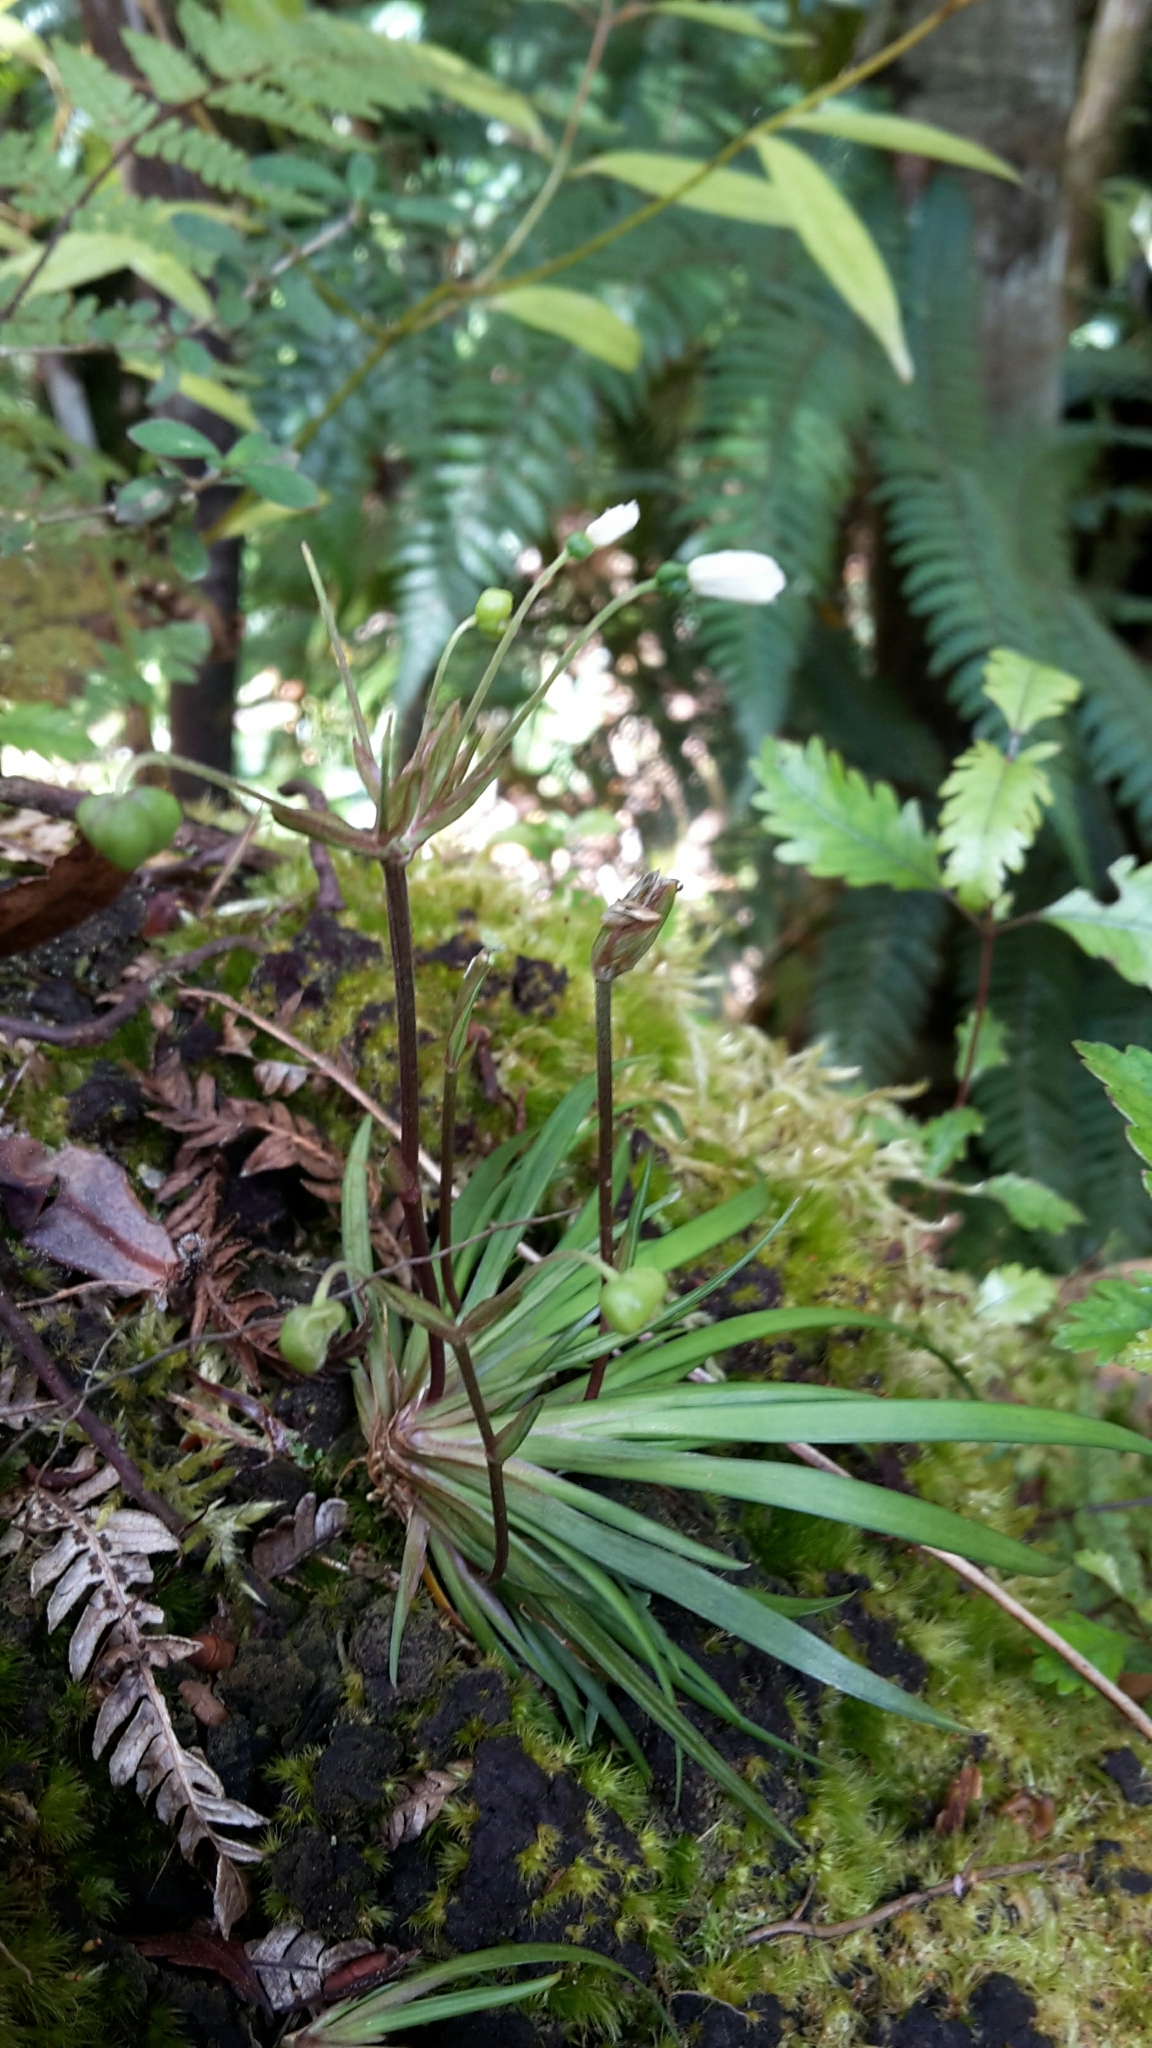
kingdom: Plantae
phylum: Tracheophyta
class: Liliopsida
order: Asparagales
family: Iridaceae
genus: Libertia
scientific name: Libertia micrantha
